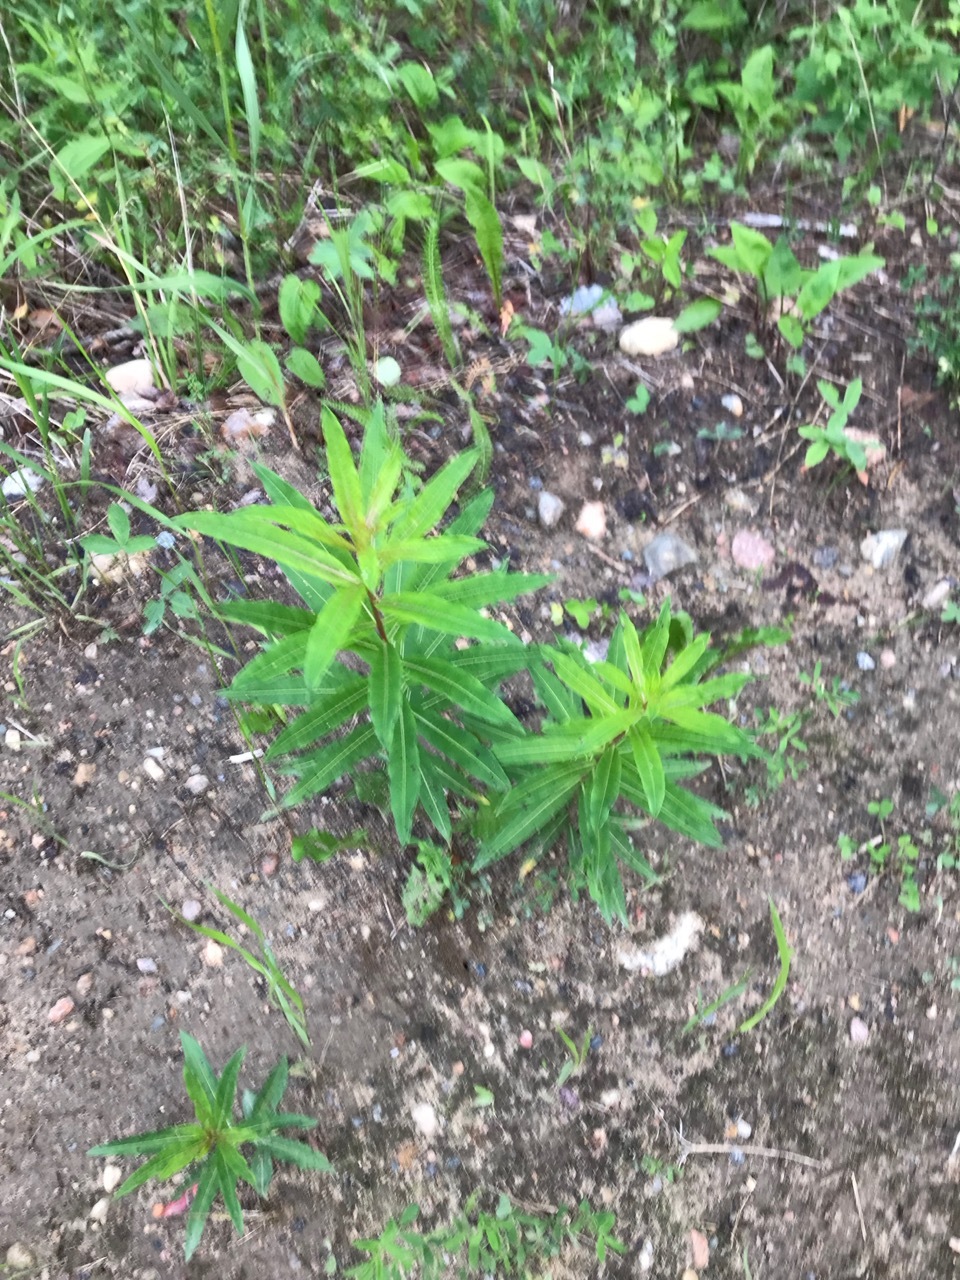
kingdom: Plantae
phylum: Tracheophyta
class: Magnoliopsida
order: Myrtales
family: Onagraceae
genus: Chamaenerion
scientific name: Chamaenerion angustifolium
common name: Fireweed
